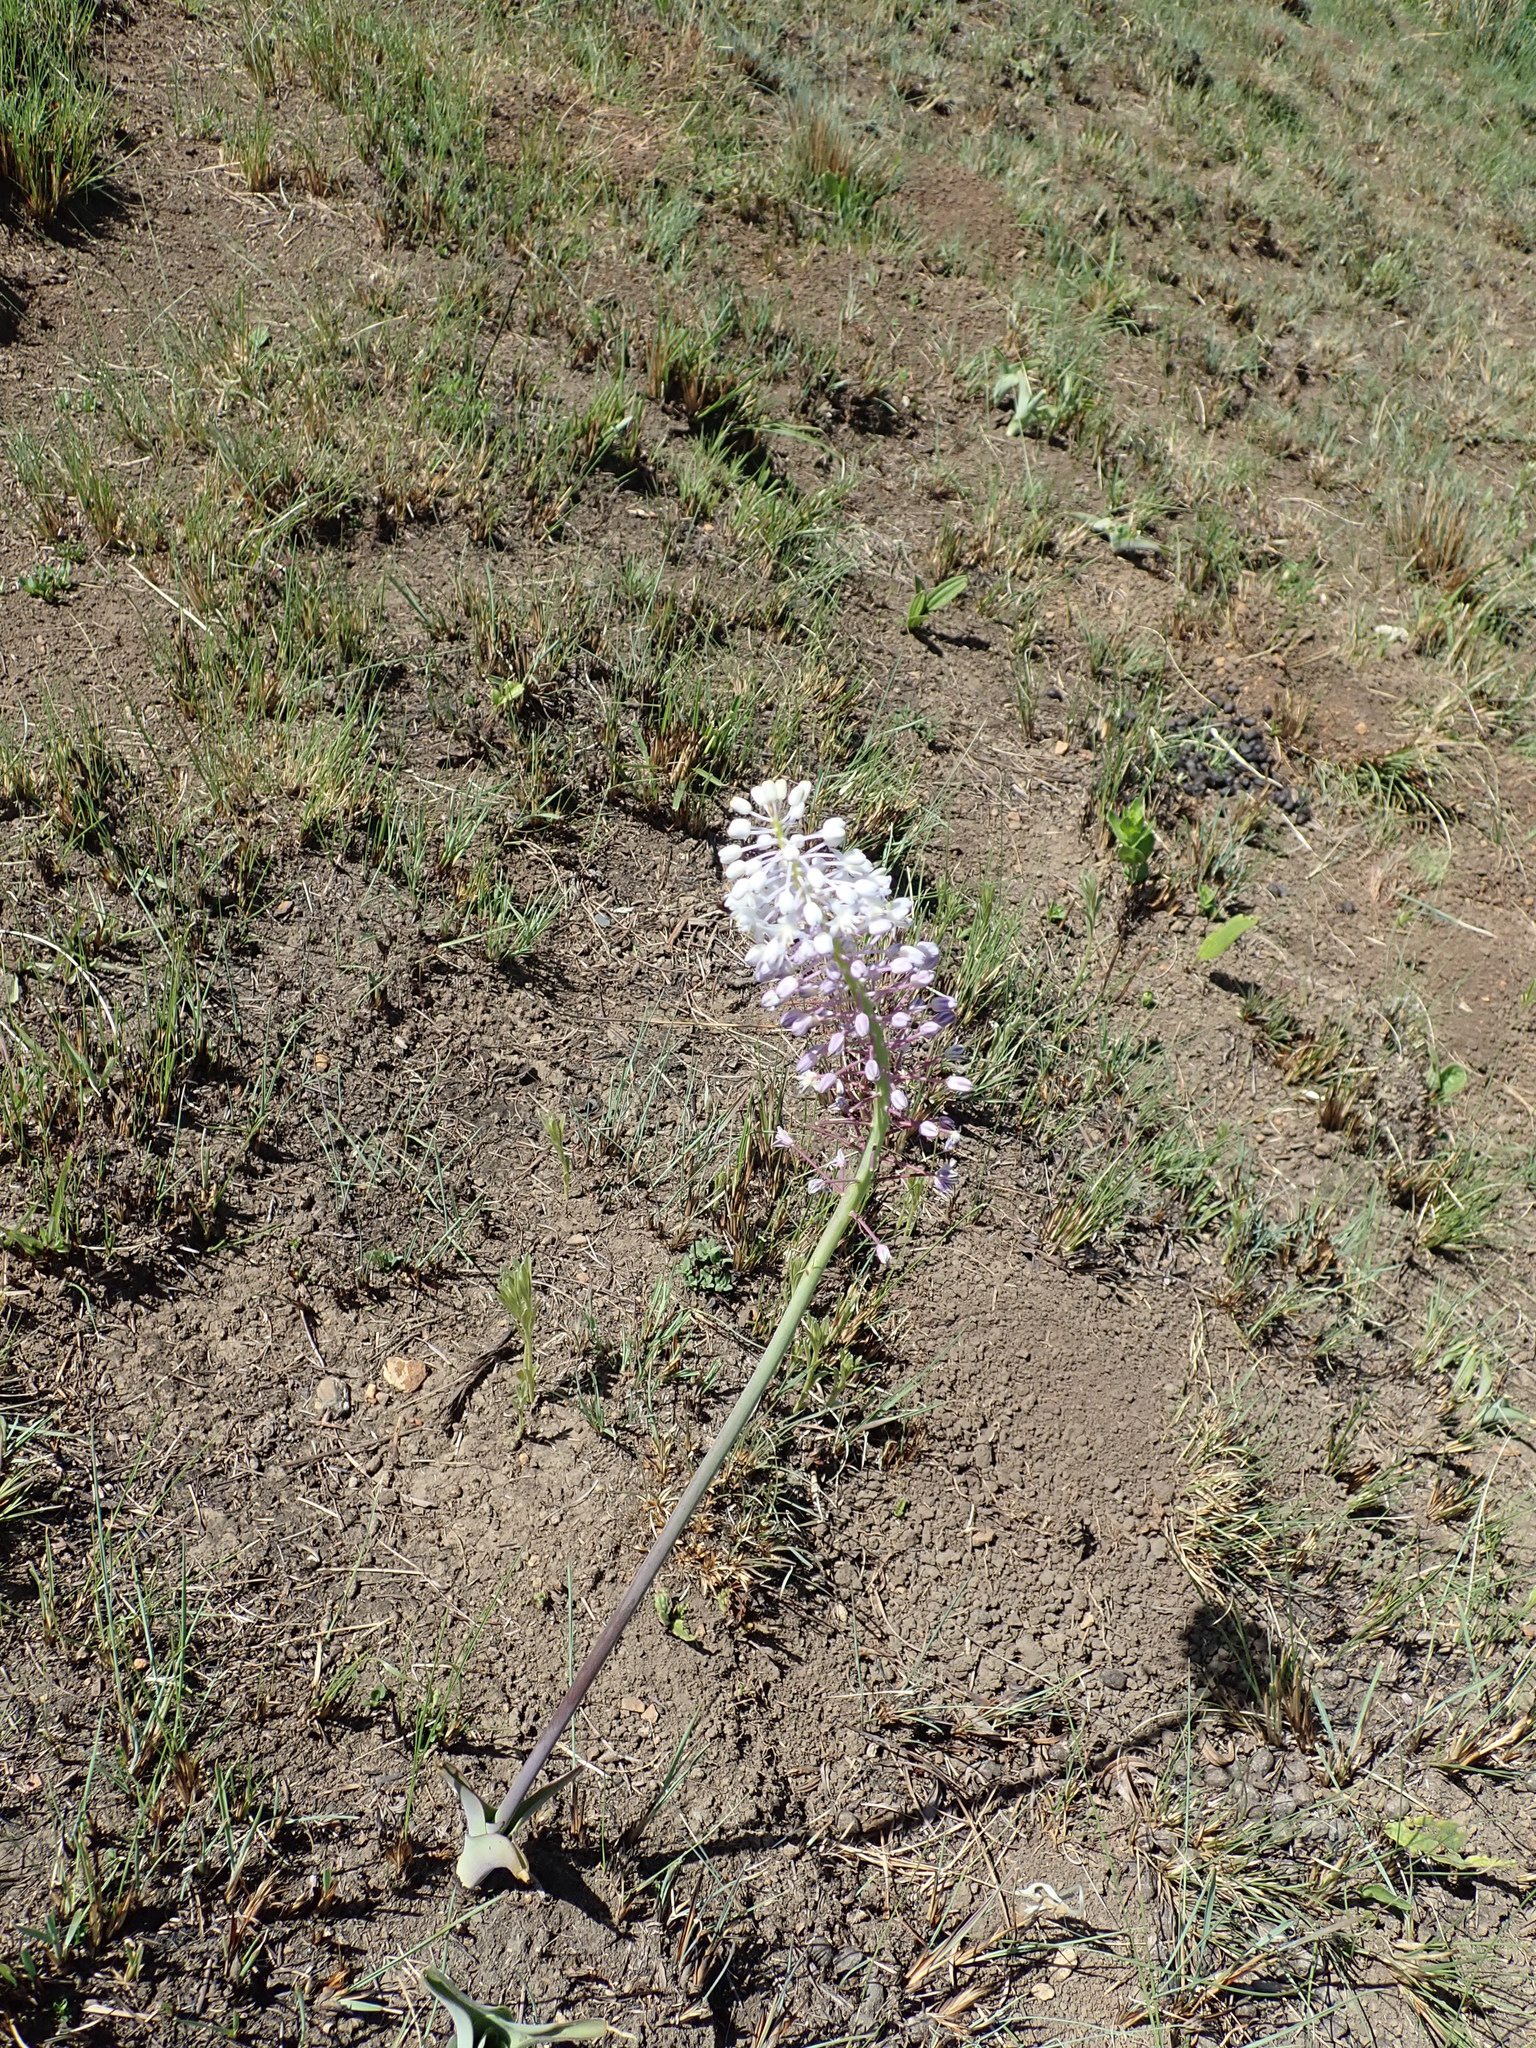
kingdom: Plantae
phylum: Tracheophyta
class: Liliopsida
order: Asparagales
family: Asparagaceae
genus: Merwilla
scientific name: Merwilla plumbea
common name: Blue-squill
